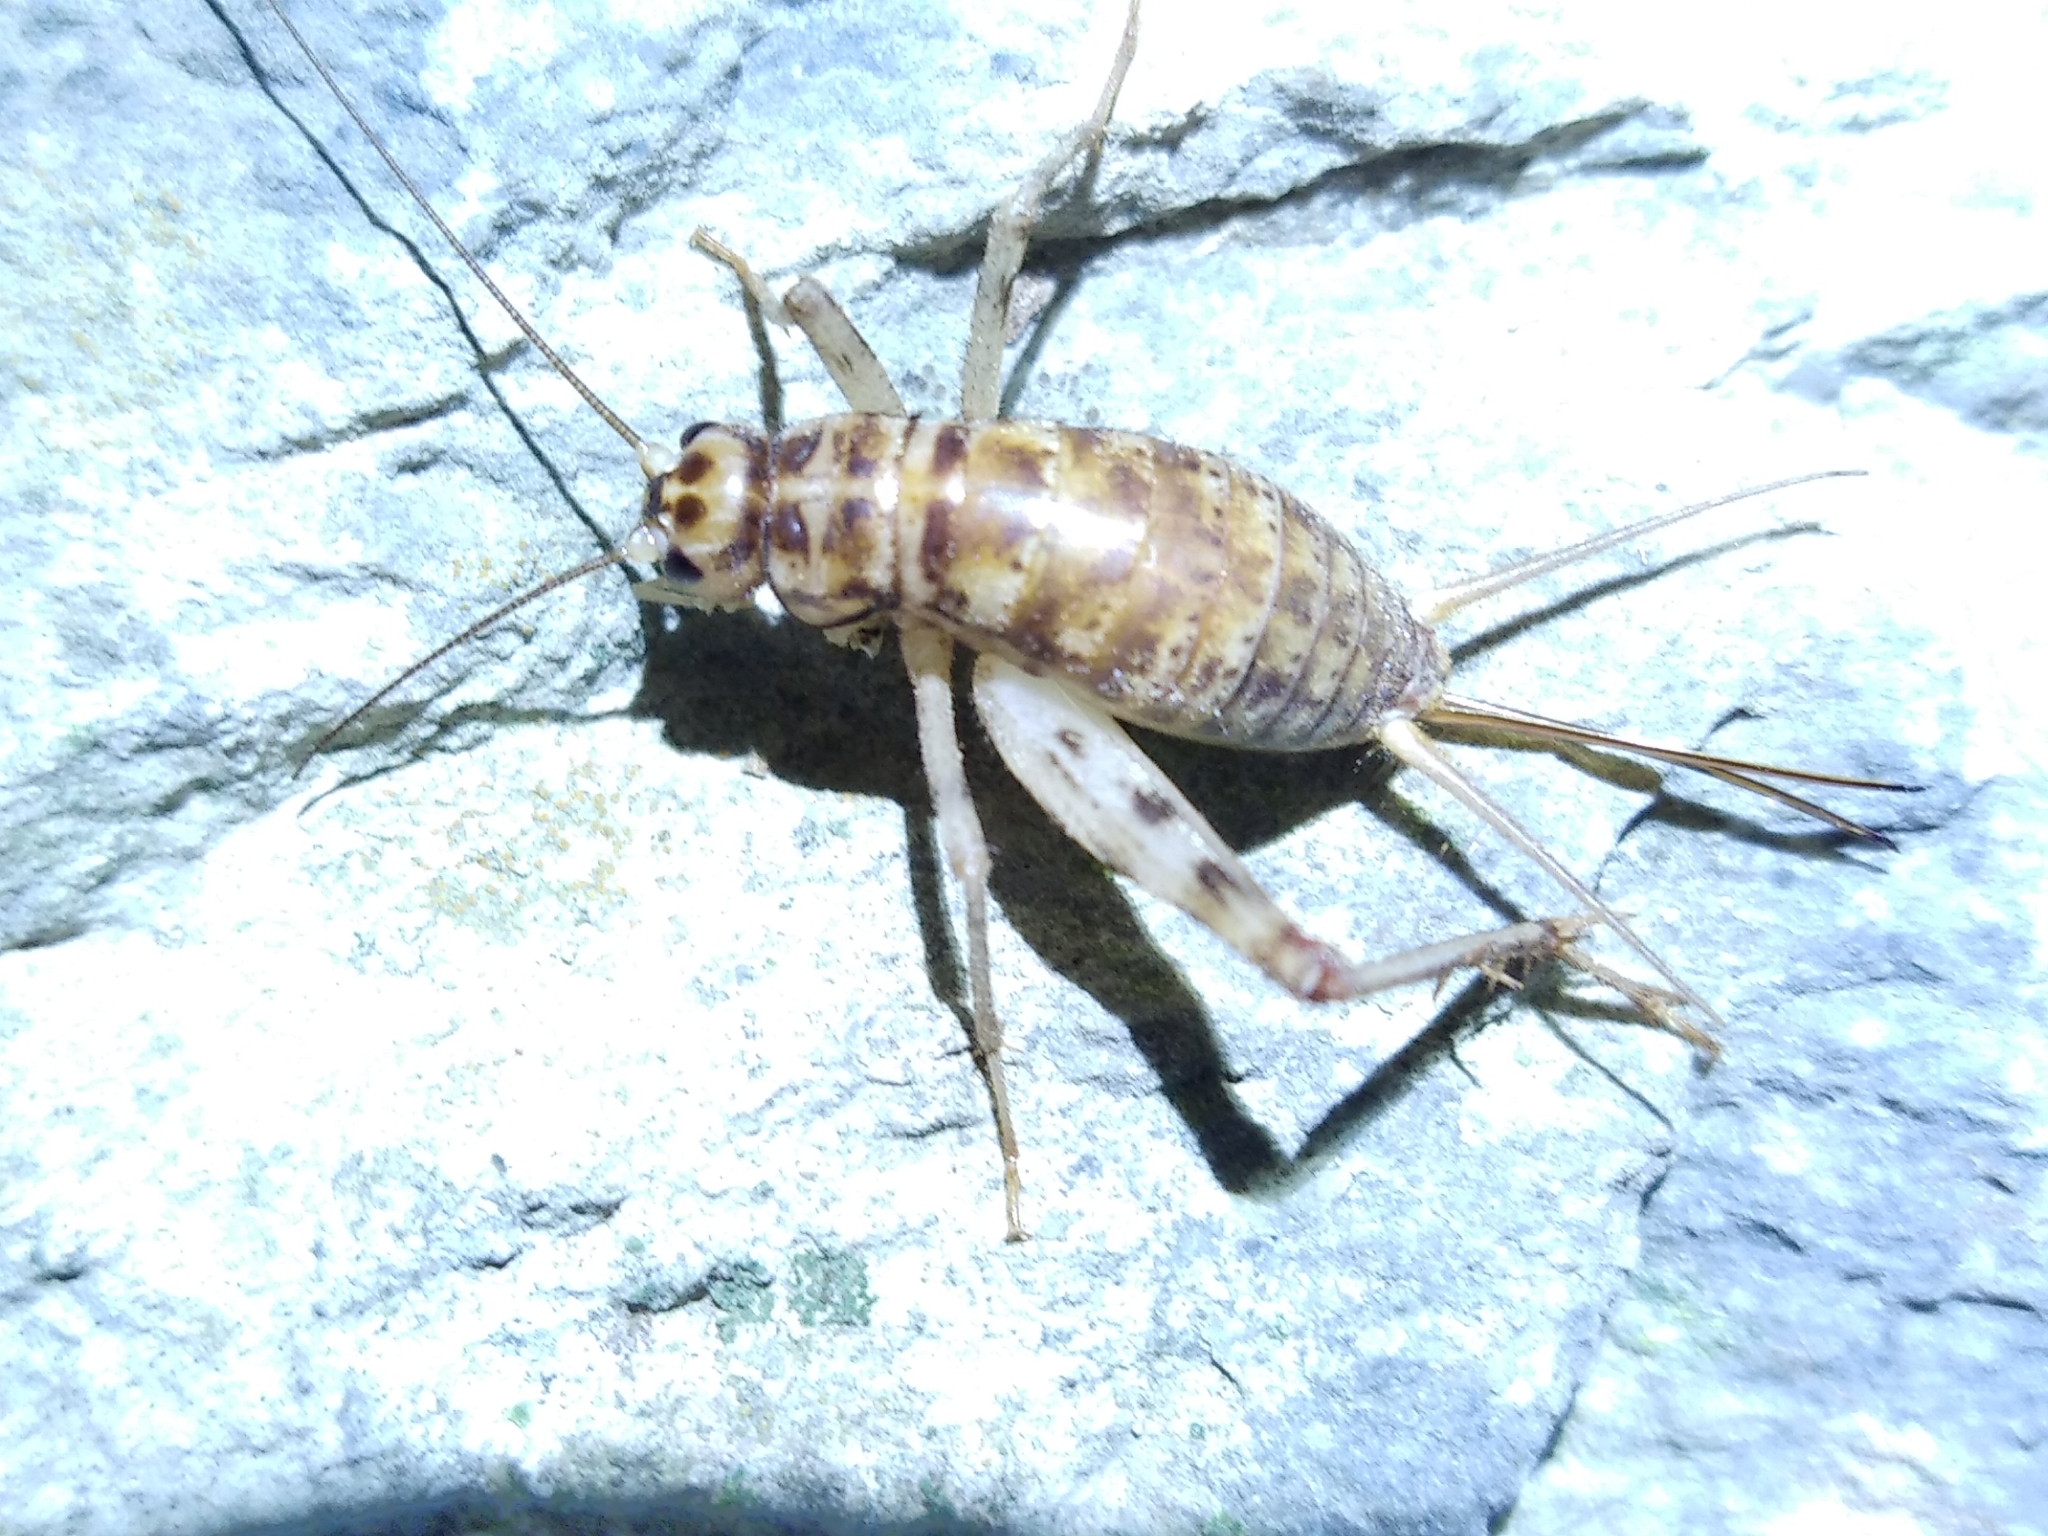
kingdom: Animalia
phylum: Arthropoda
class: Insecta
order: Orthoptera
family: Gryllidae
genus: Gryllomorpha
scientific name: Gryllomorpha dalmatina
